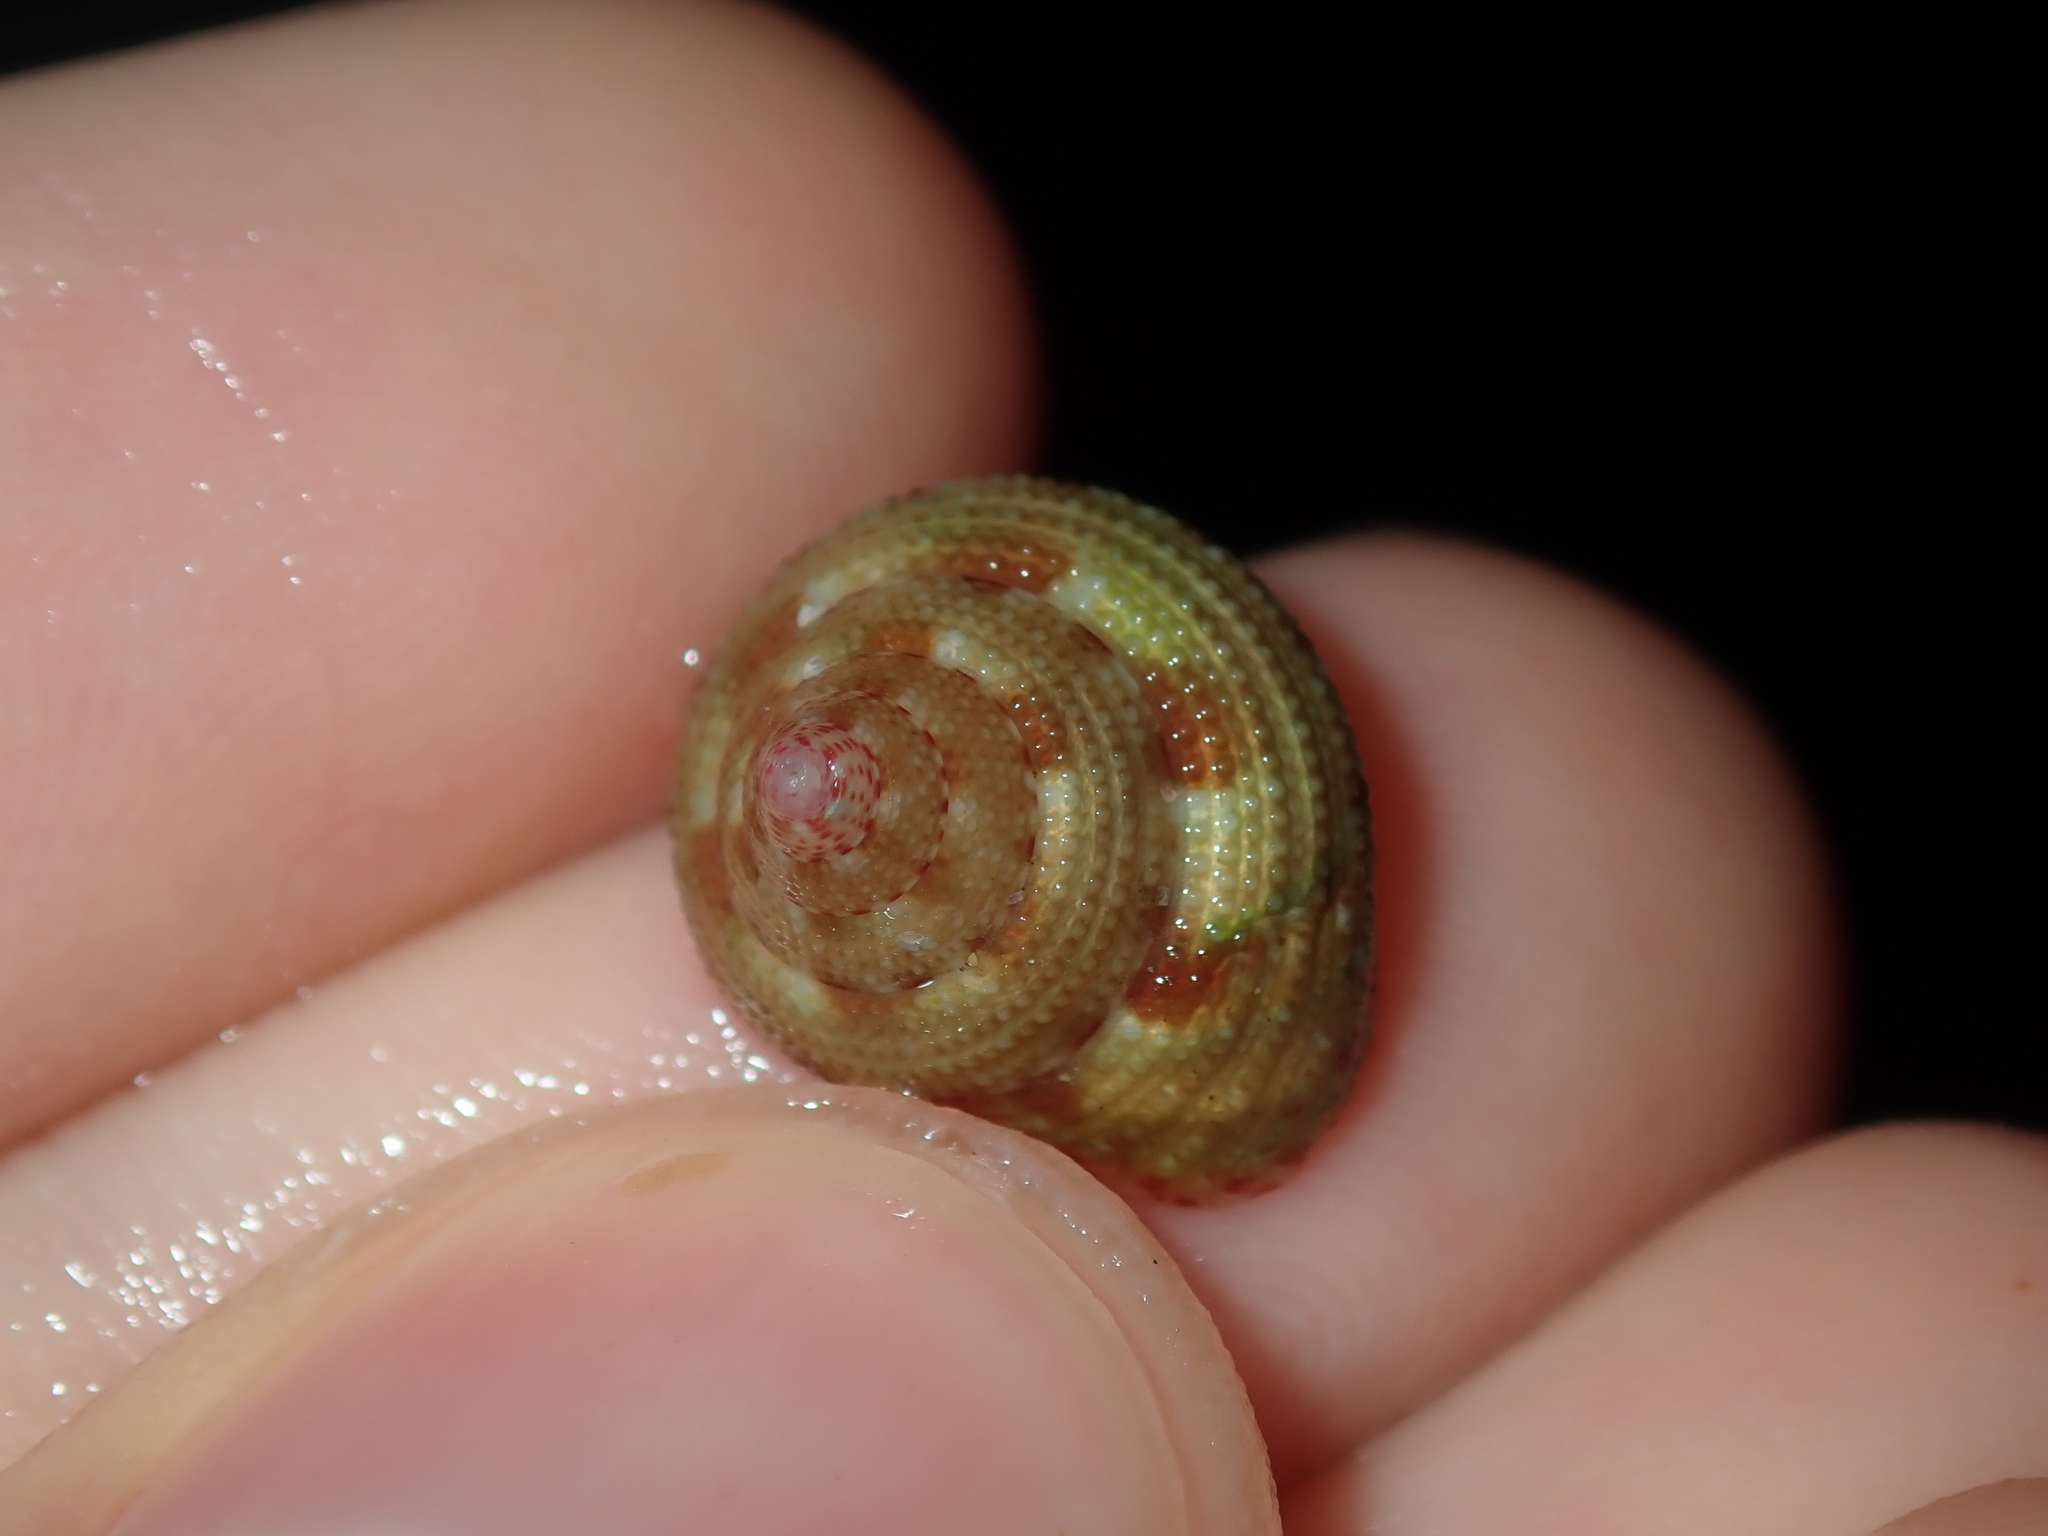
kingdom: Animalia
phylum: Mollusca
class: Gastropoda
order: Trochida
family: Trochidae
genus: Clanculus
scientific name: Clanculus clangulus
